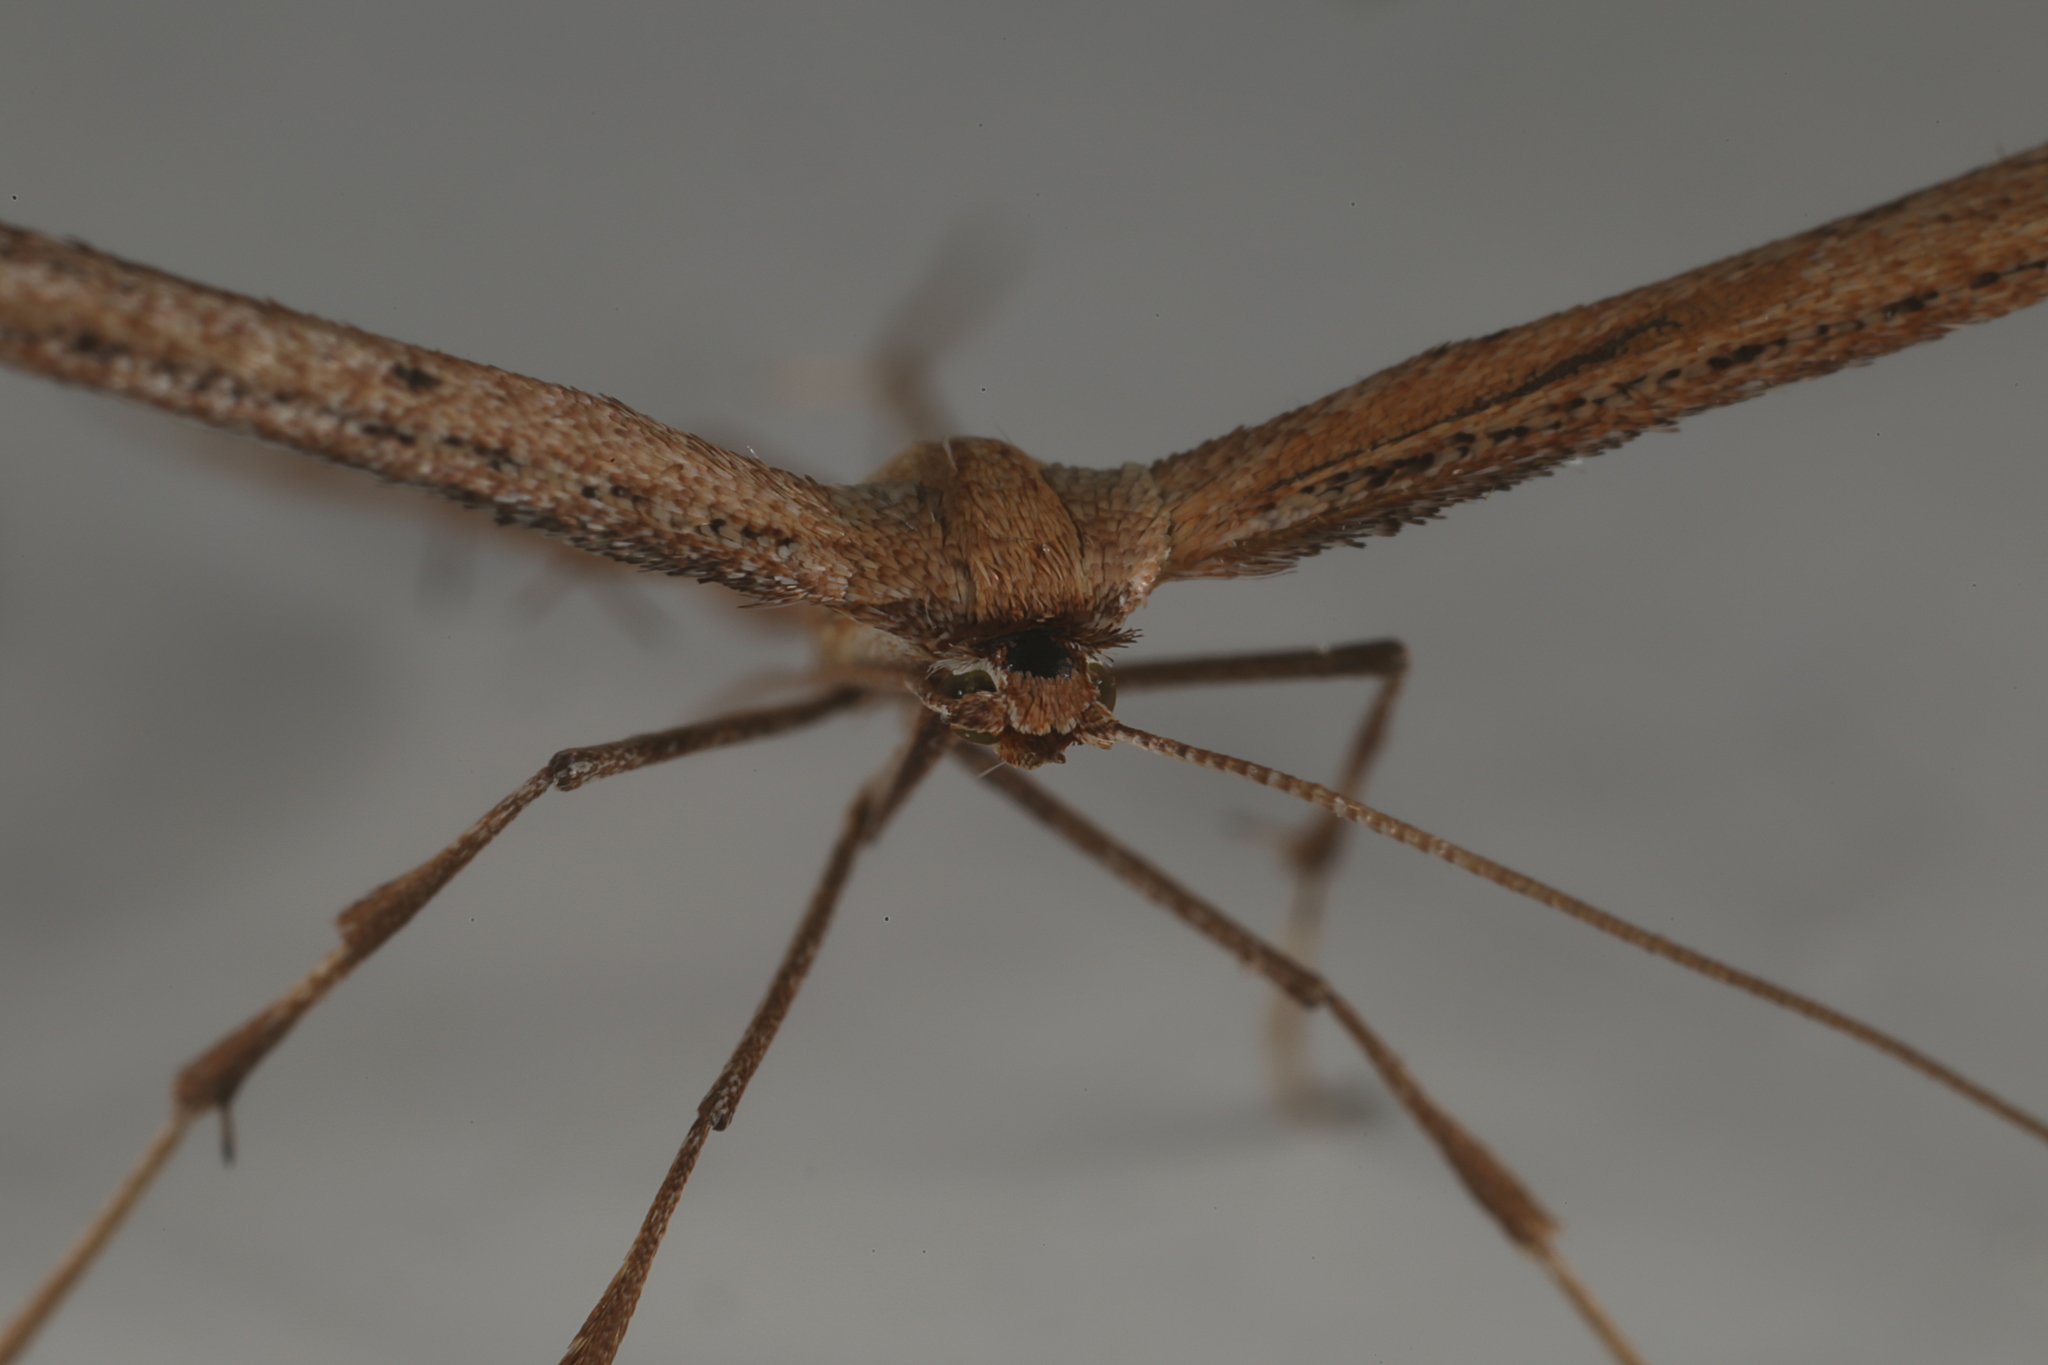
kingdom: Animalia
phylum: Arthropoda
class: Insecta
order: Lepidoptera
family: Pterophoridae
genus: Emmelina
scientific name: Emmelina monodactyla
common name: Common plume
